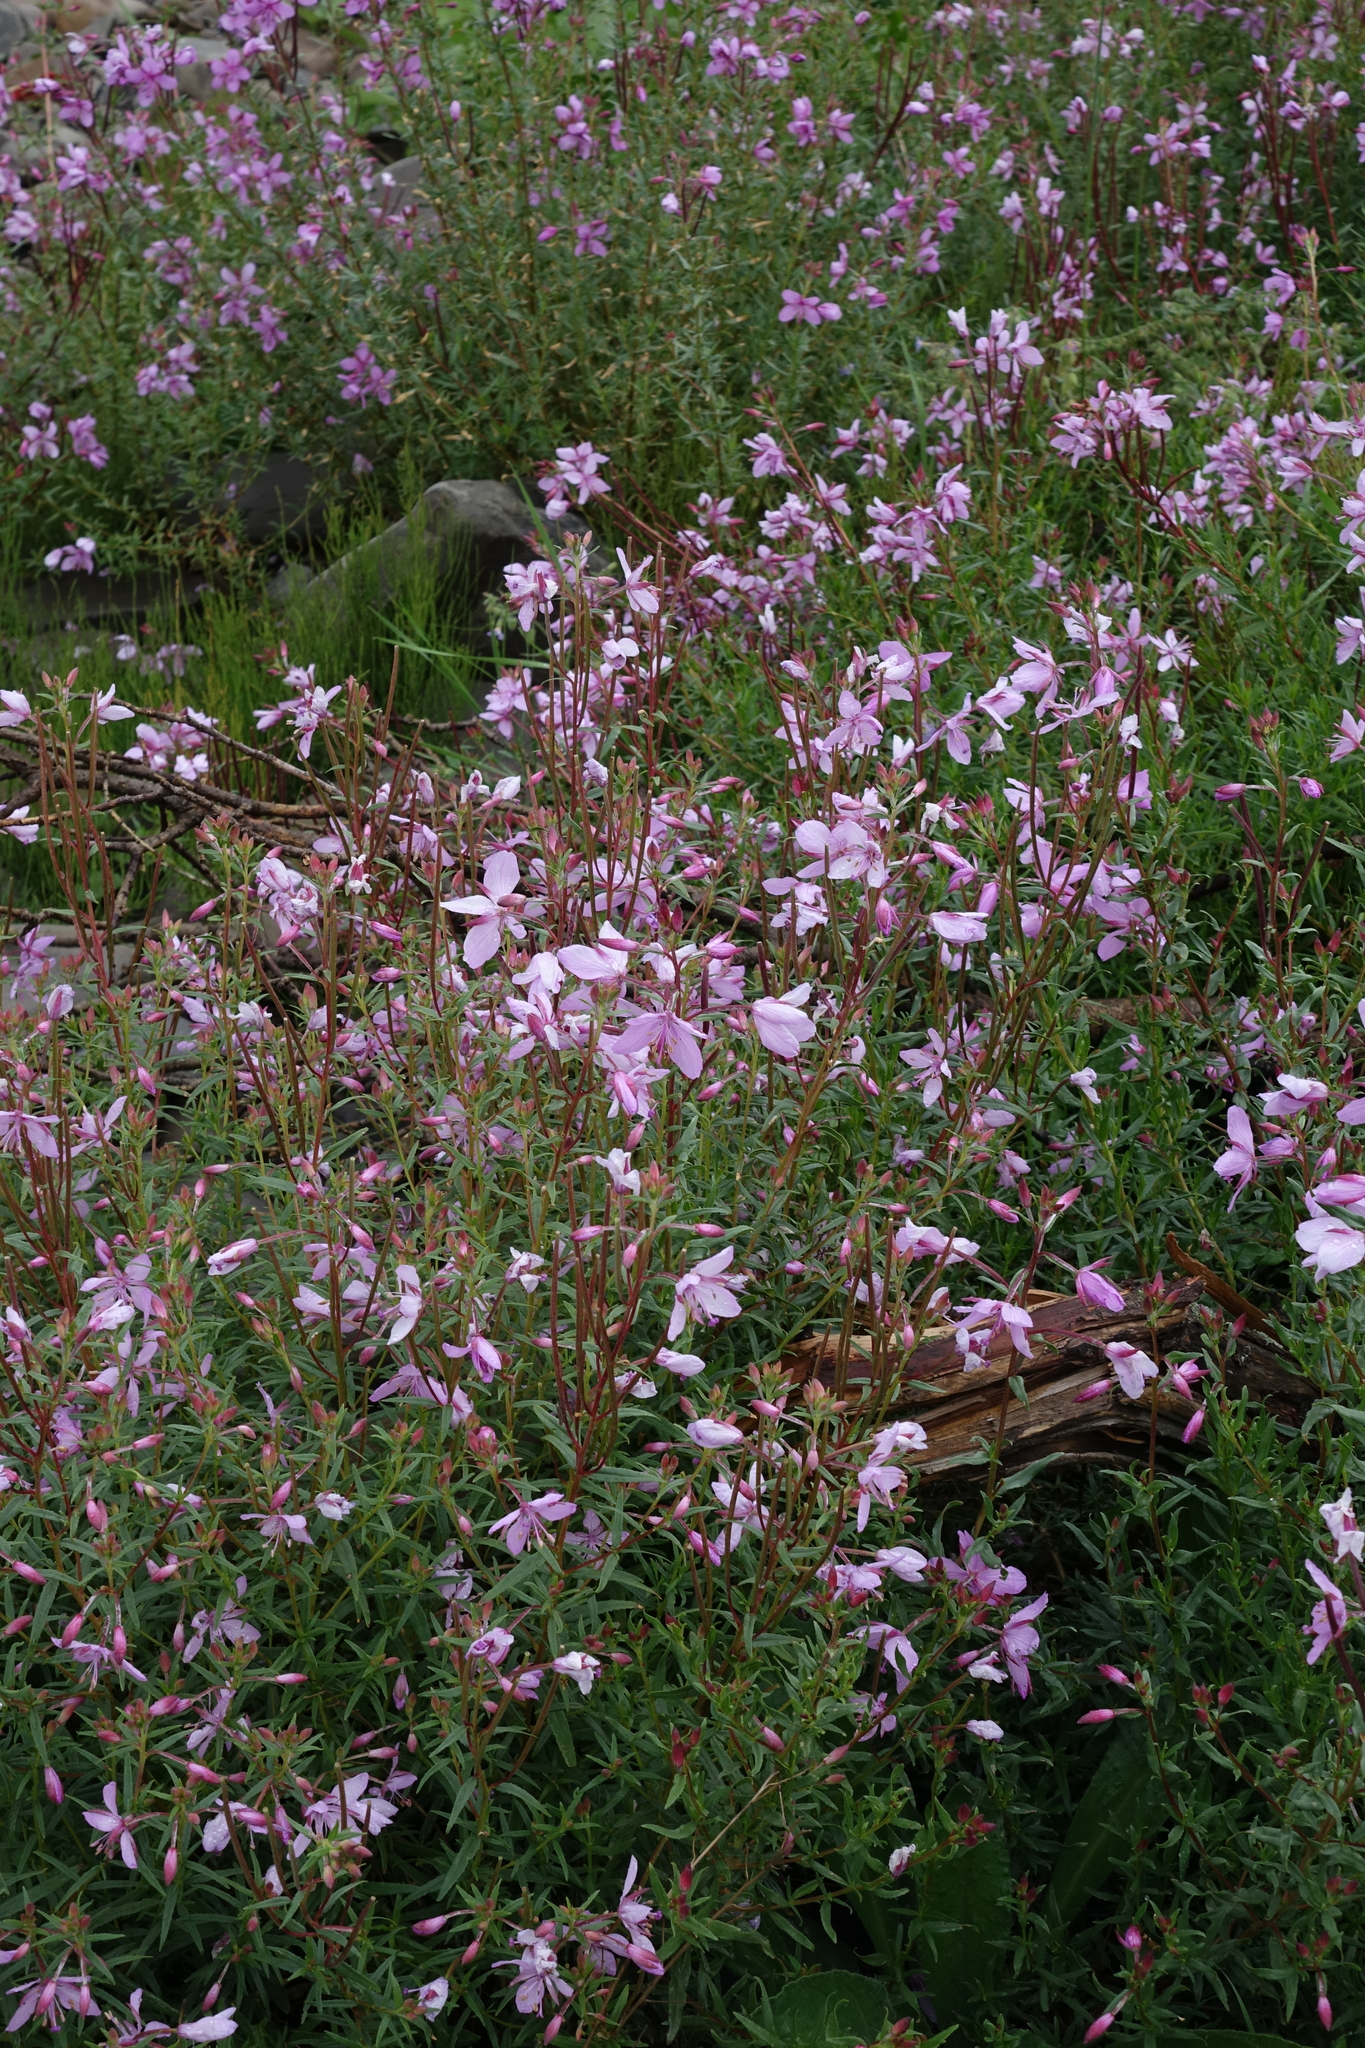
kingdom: Plantae
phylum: Tracheophyta
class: Magnoliopsida
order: Myrtales
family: Onagraceae
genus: Chamaenerion
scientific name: Chamaenerion colchicum
